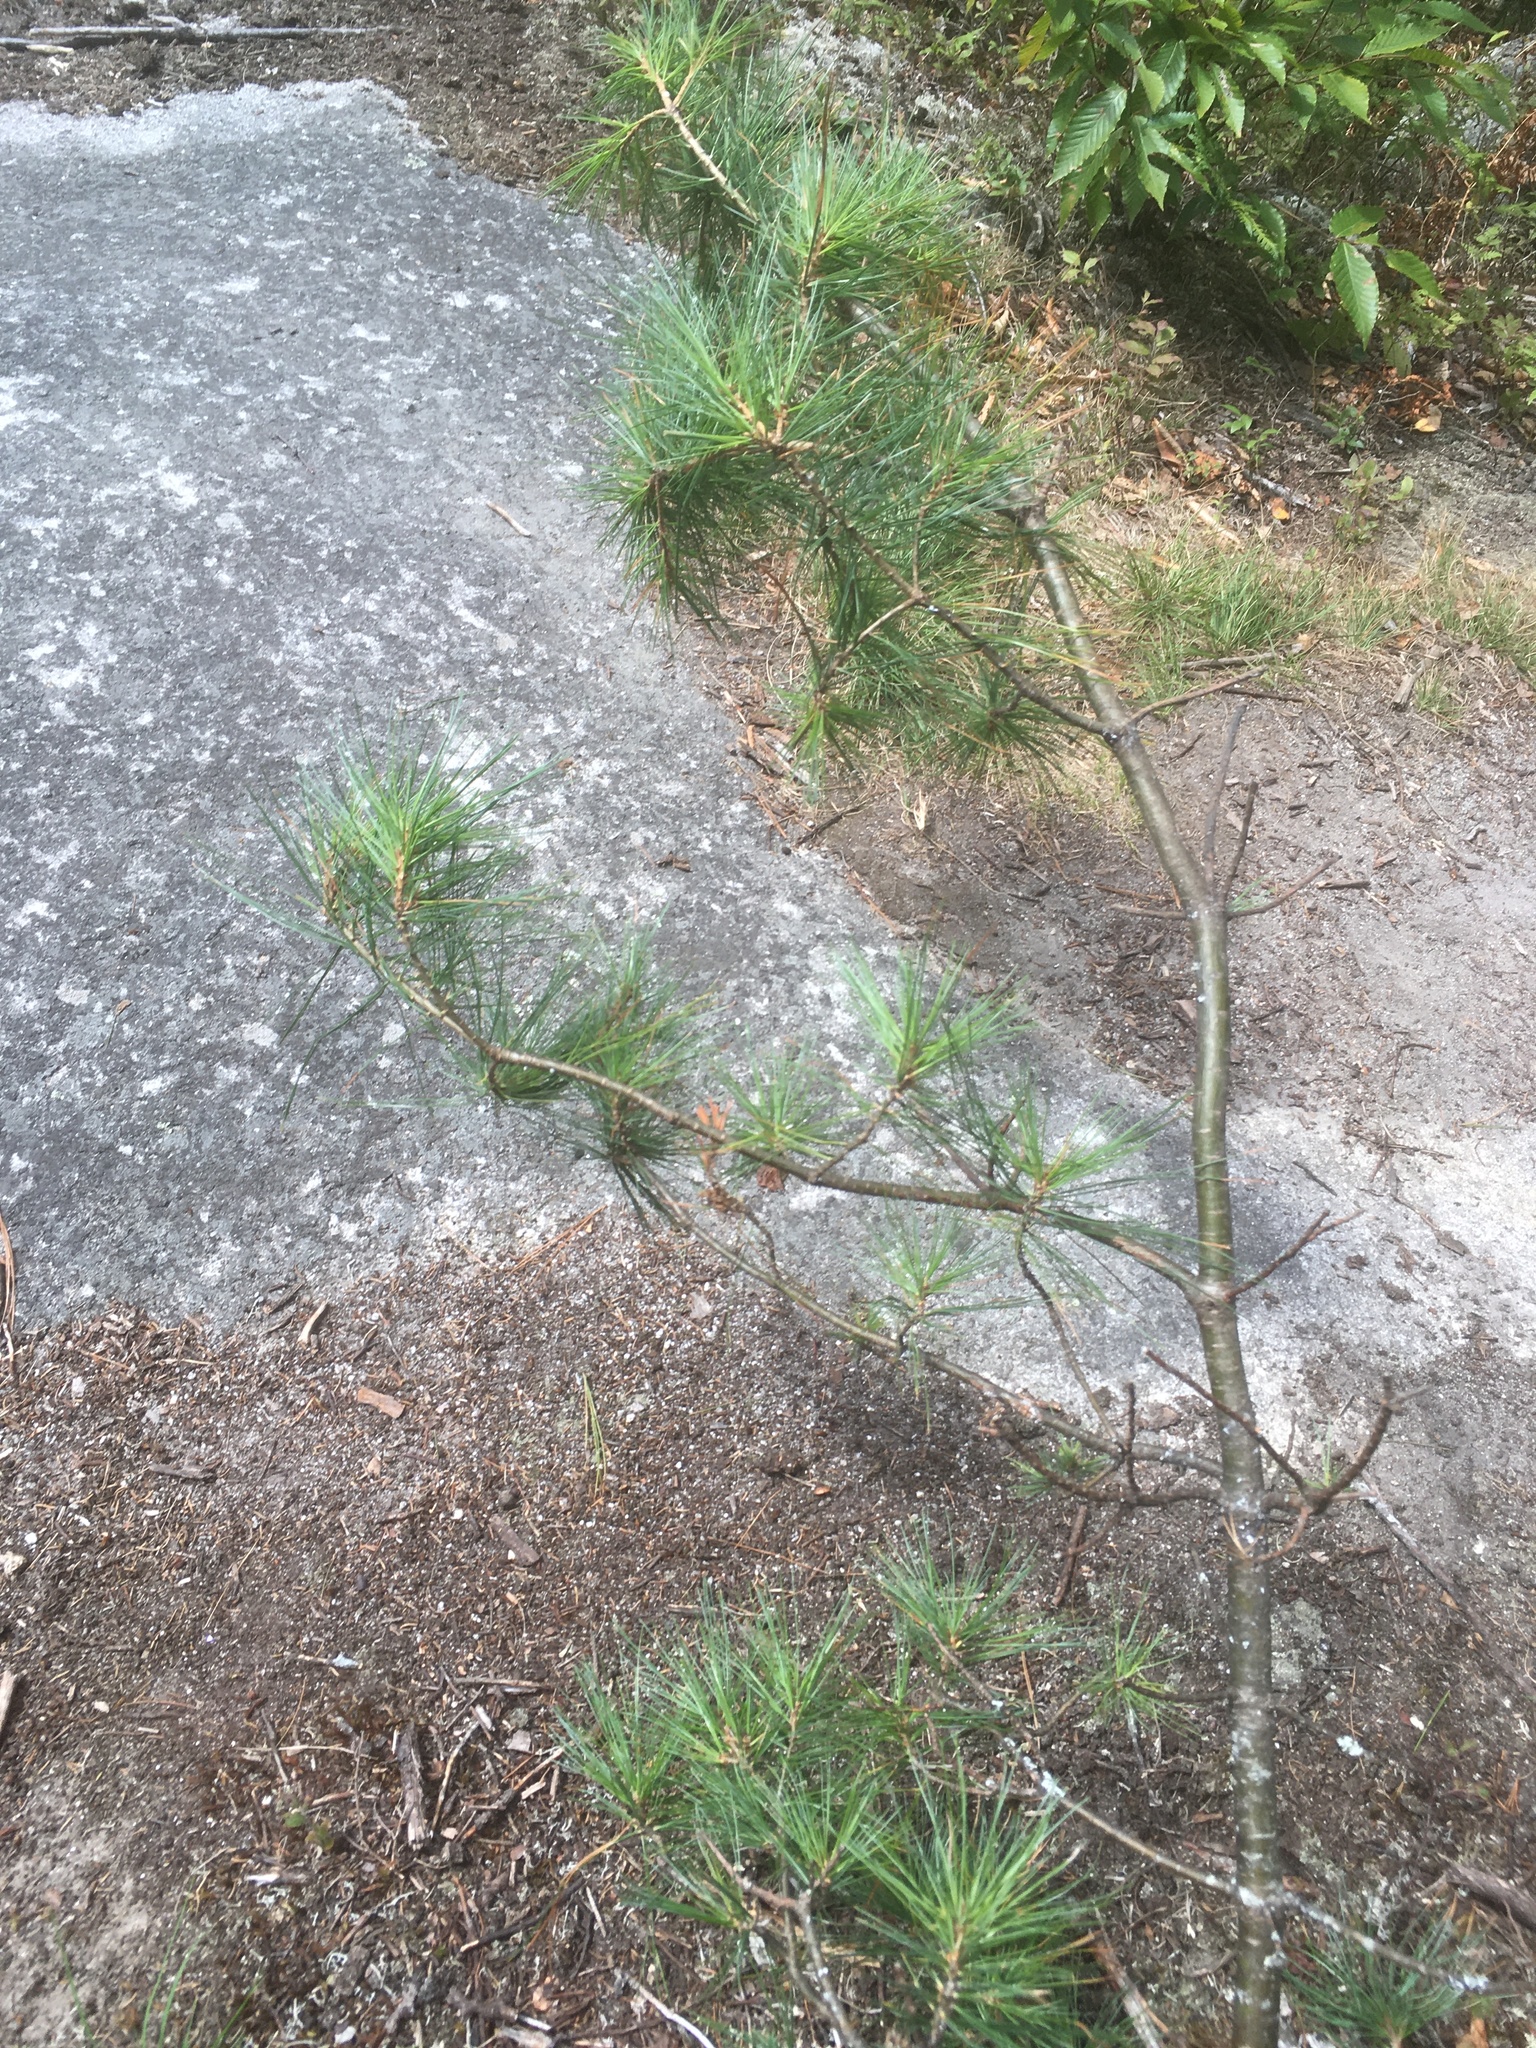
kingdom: Plantae
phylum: Tracheophyta
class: Pinopsida
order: Pinales
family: Pinaceae
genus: Pinus
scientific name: Pinus strobus
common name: Weymouth pine
